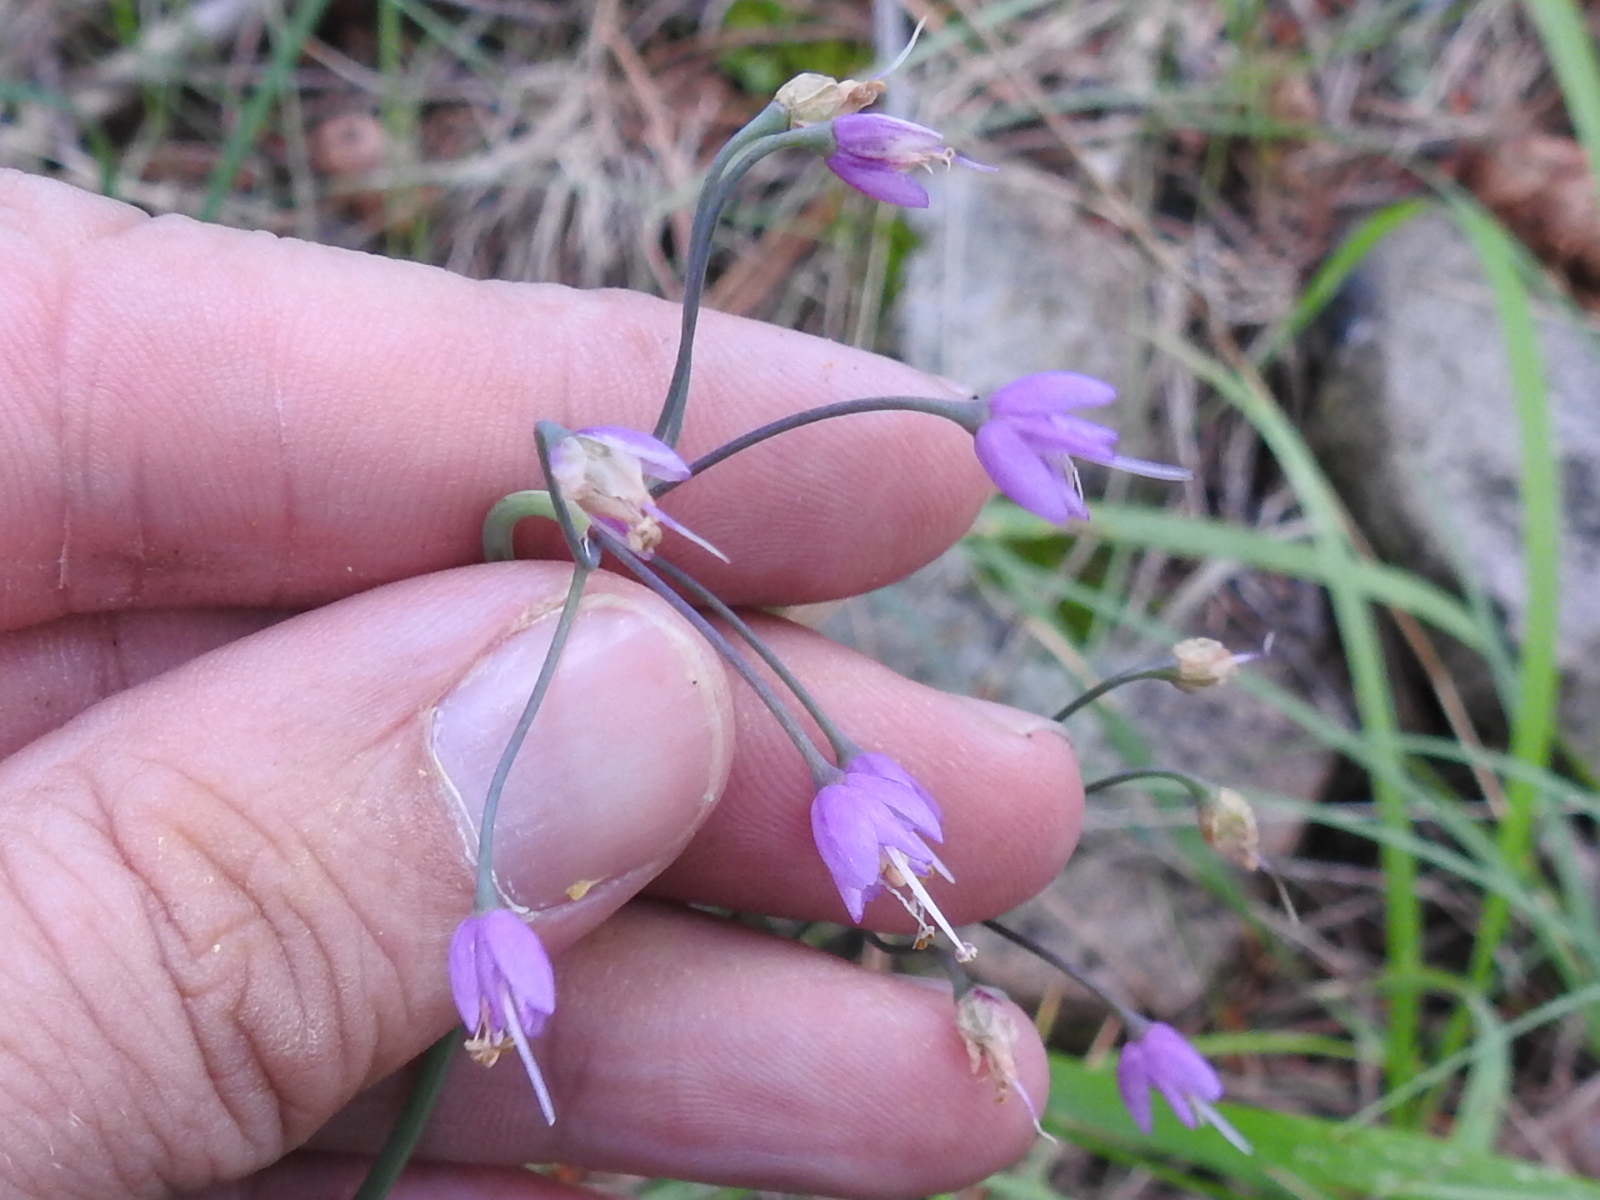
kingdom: Plantae
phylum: Tracheophyta
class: Liliopsida
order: Asparagales
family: Amaryllidaceae
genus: Allium
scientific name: Allium cernuum
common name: Nodding onion
